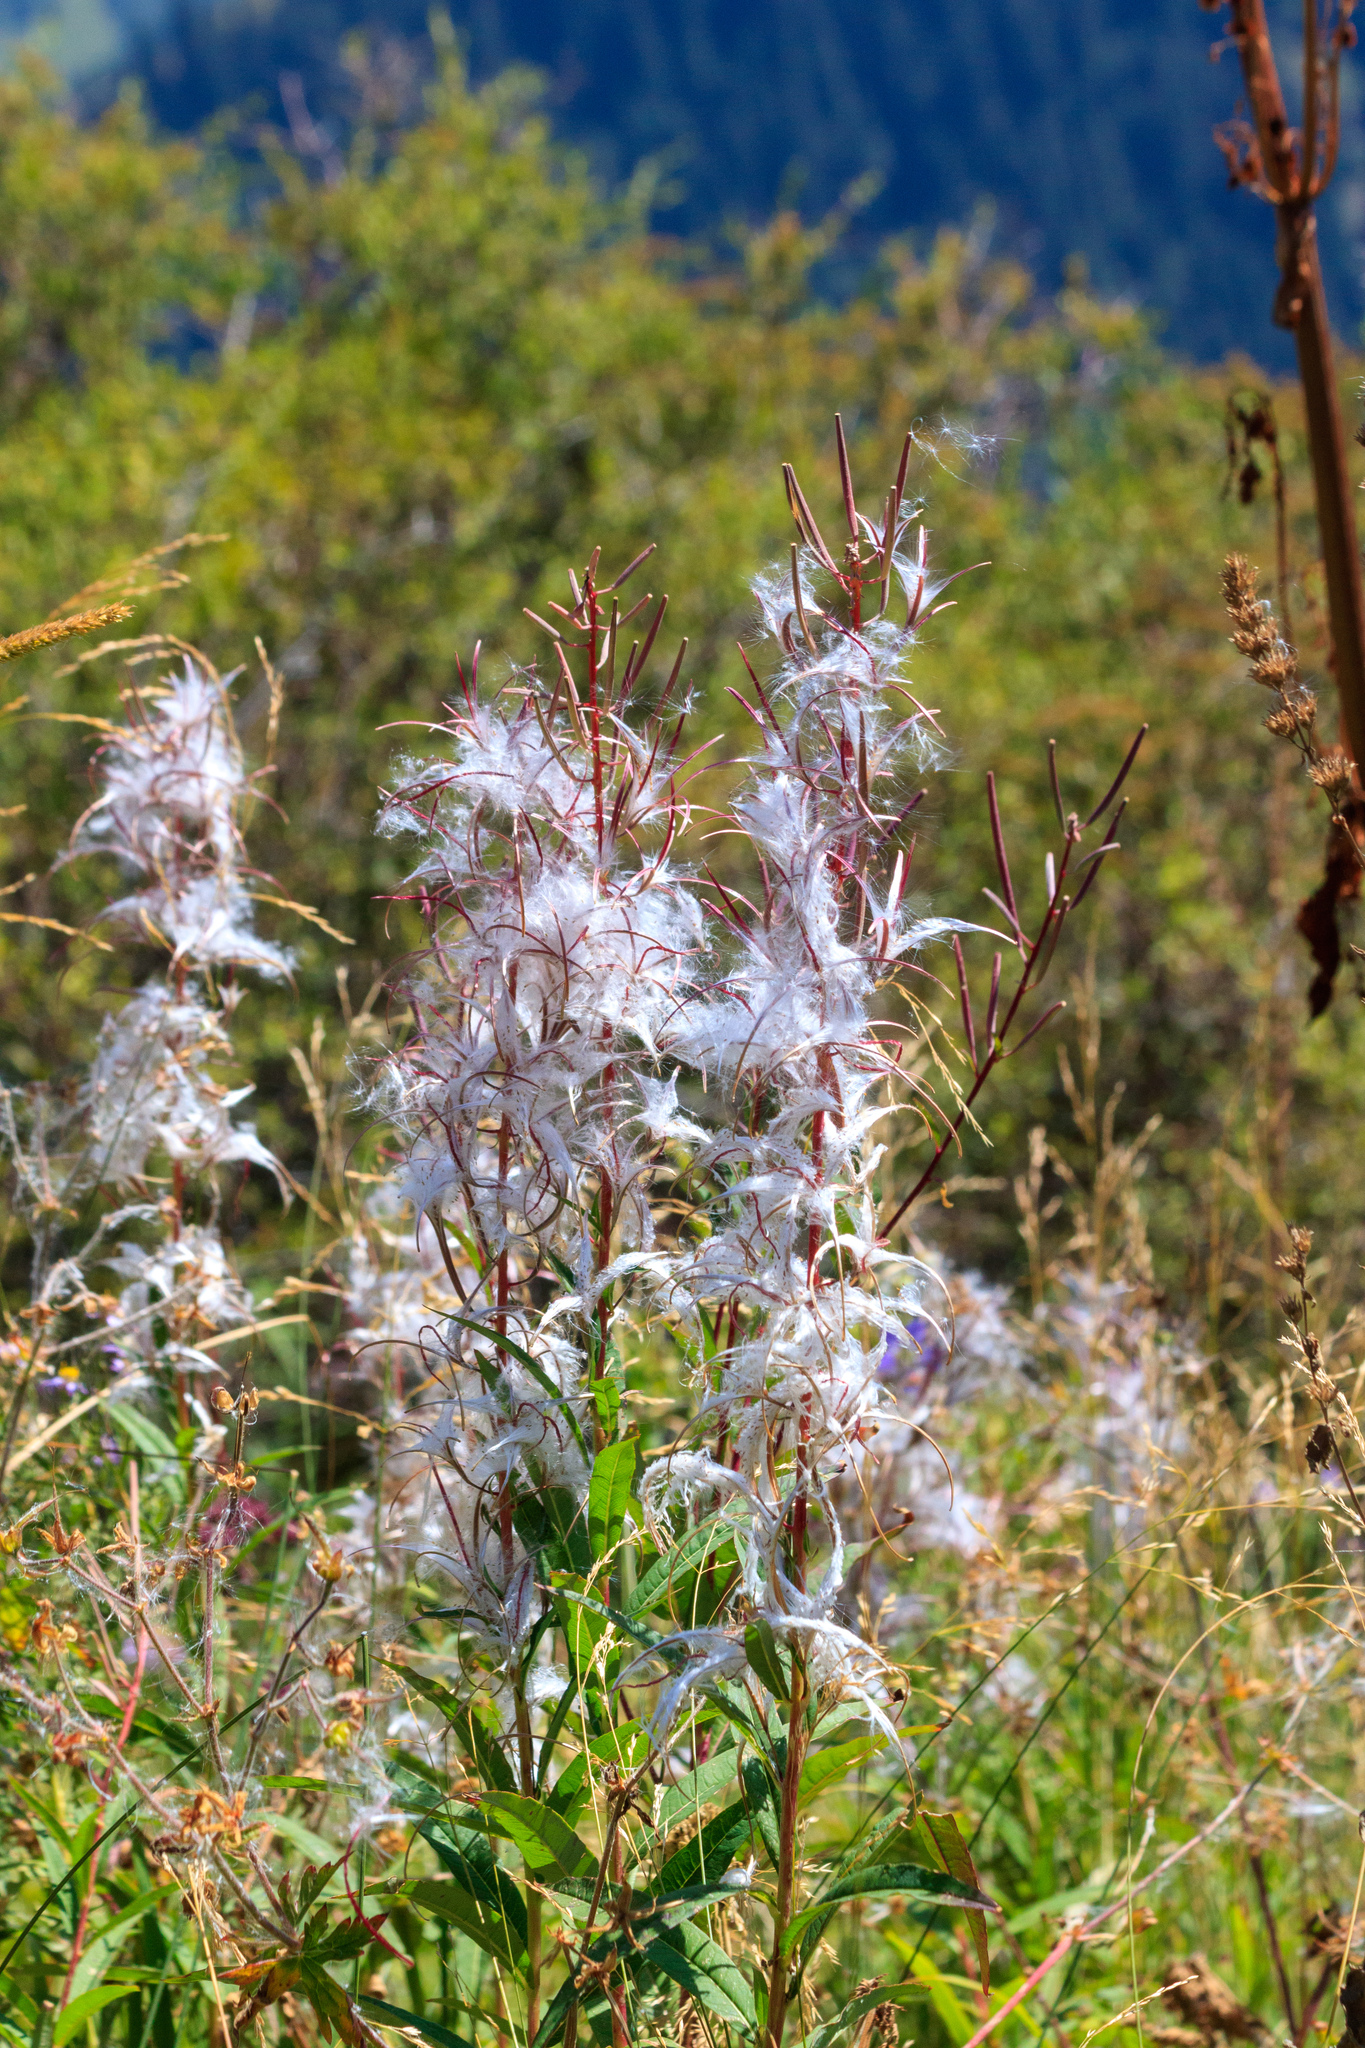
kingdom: Plantae
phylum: Tracheophyta
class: Magnoliopsida
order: Myrtales
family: Onagraceae
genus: Chamaenerion
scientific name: Chamaenerion angustifolium
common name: Fireweed
